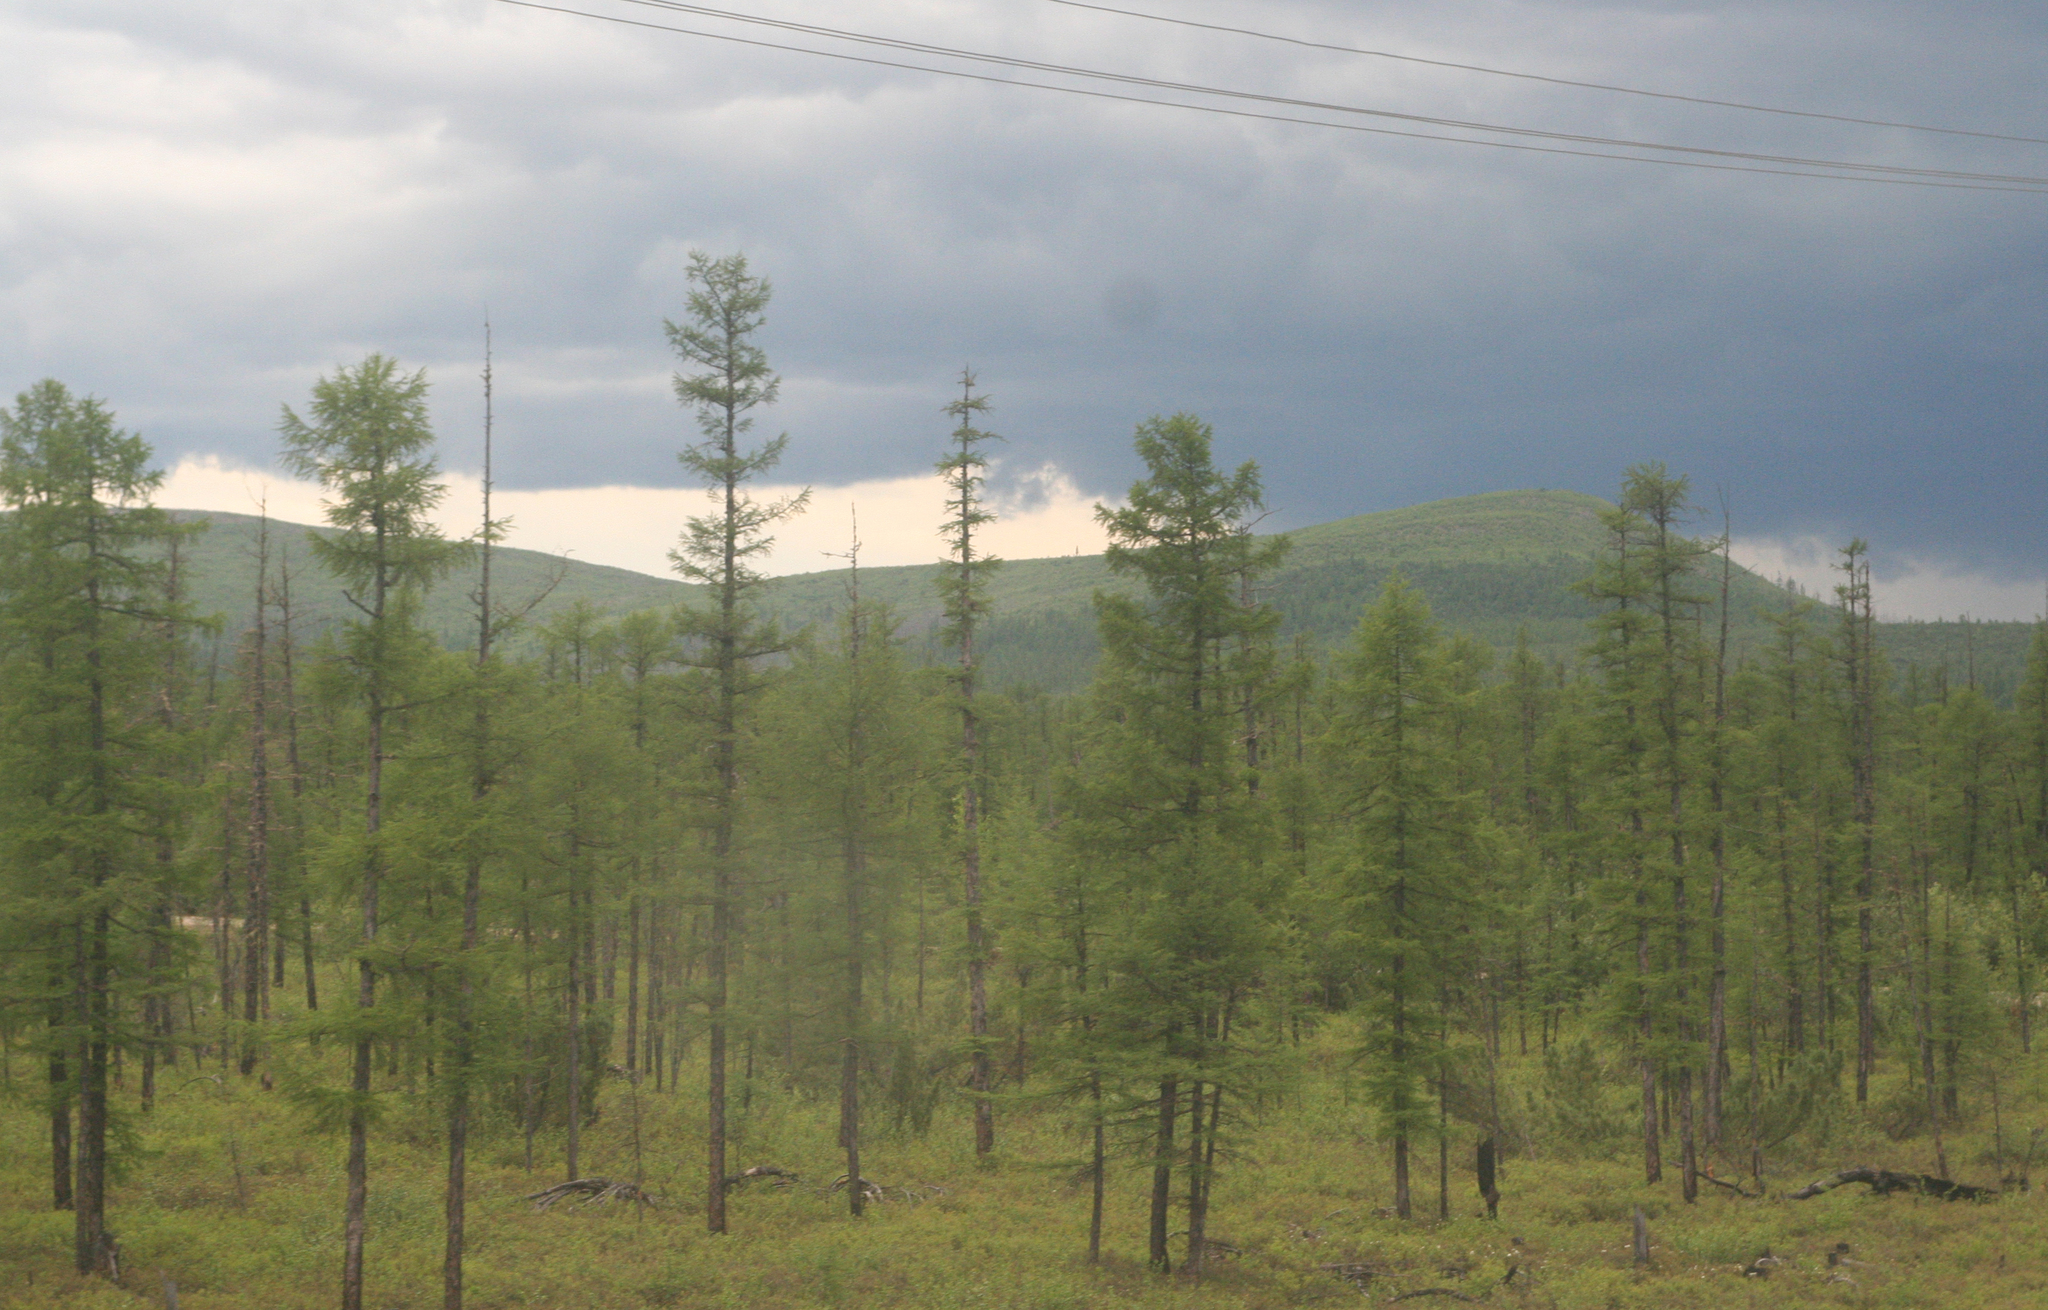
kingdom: Plantae
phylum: Tracheophyta
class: Pinopsida
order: Pinales
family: Pinaceae
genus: Larix
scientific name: Larix gmelinii
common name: Dahurian larch
